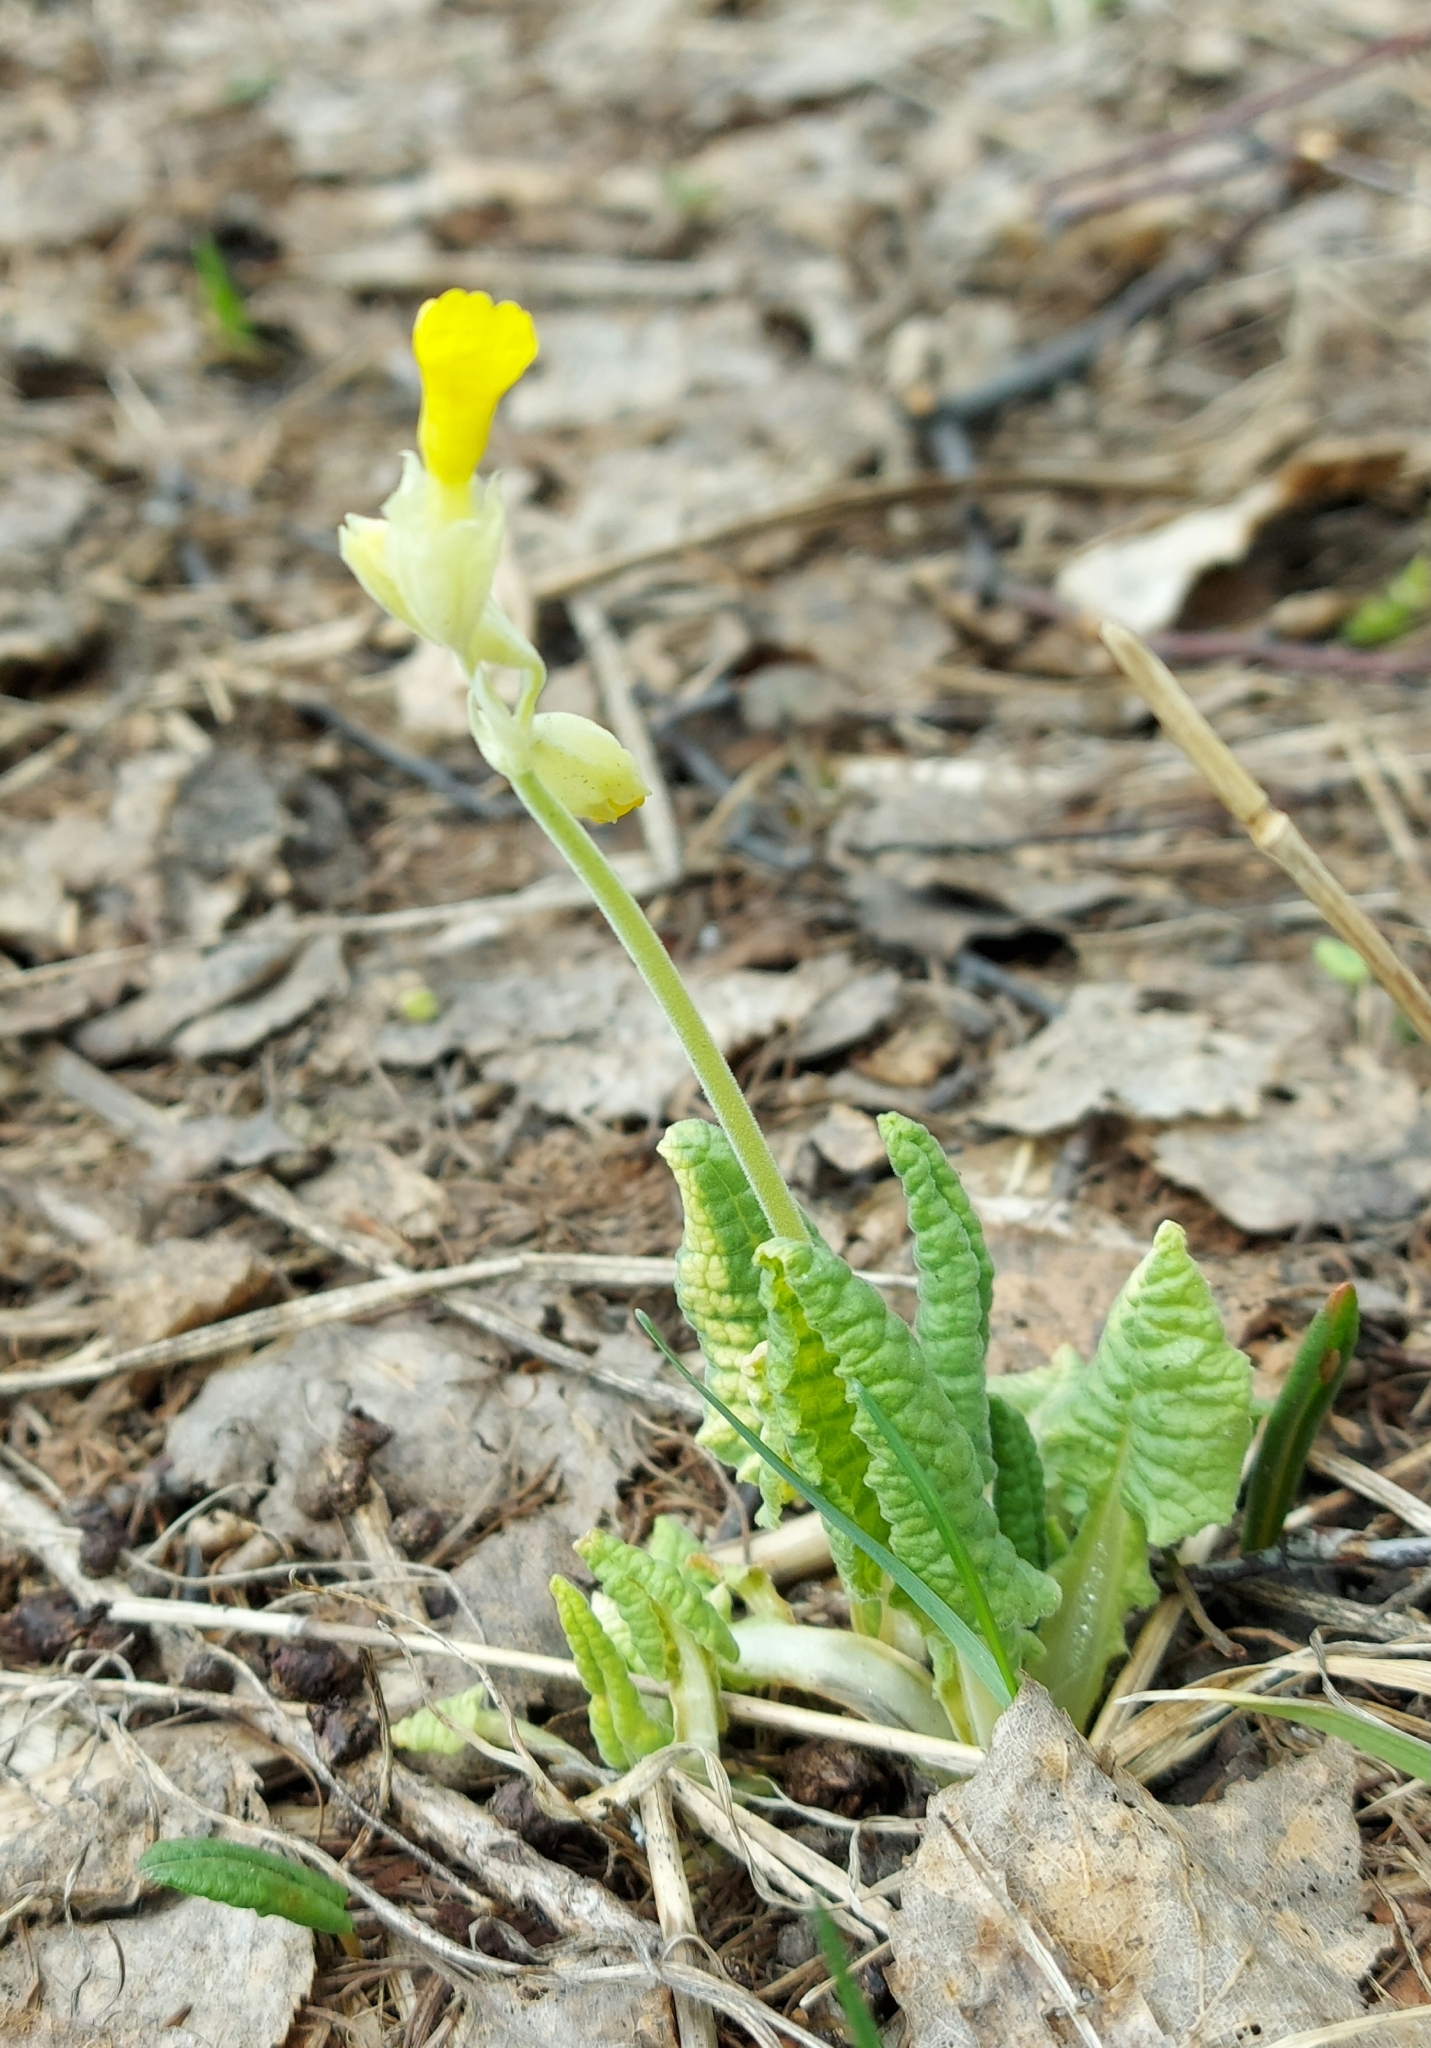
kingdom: Plantae
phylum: Tracheophyta
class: Magnoliopsida
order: Ericales
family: Primulaceae
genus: Primula
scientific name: Primula veris
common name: Cowslip
